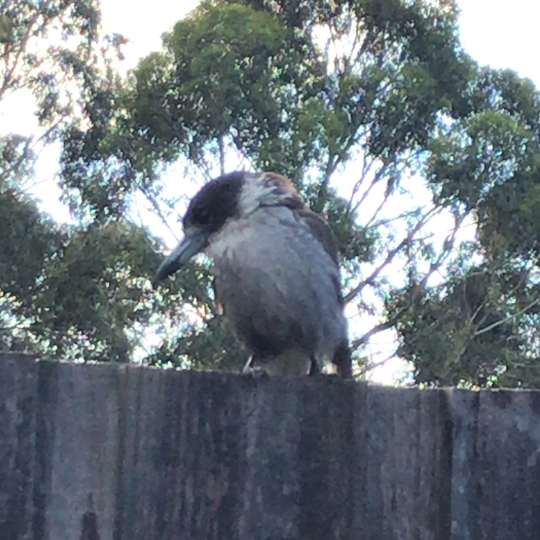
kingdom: Animalia
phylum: Chordata
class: Aves
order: Passeriformes
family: Cracticidae
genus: Cracticus
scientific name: Cracticus torquatus
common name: Grey butcherbird
